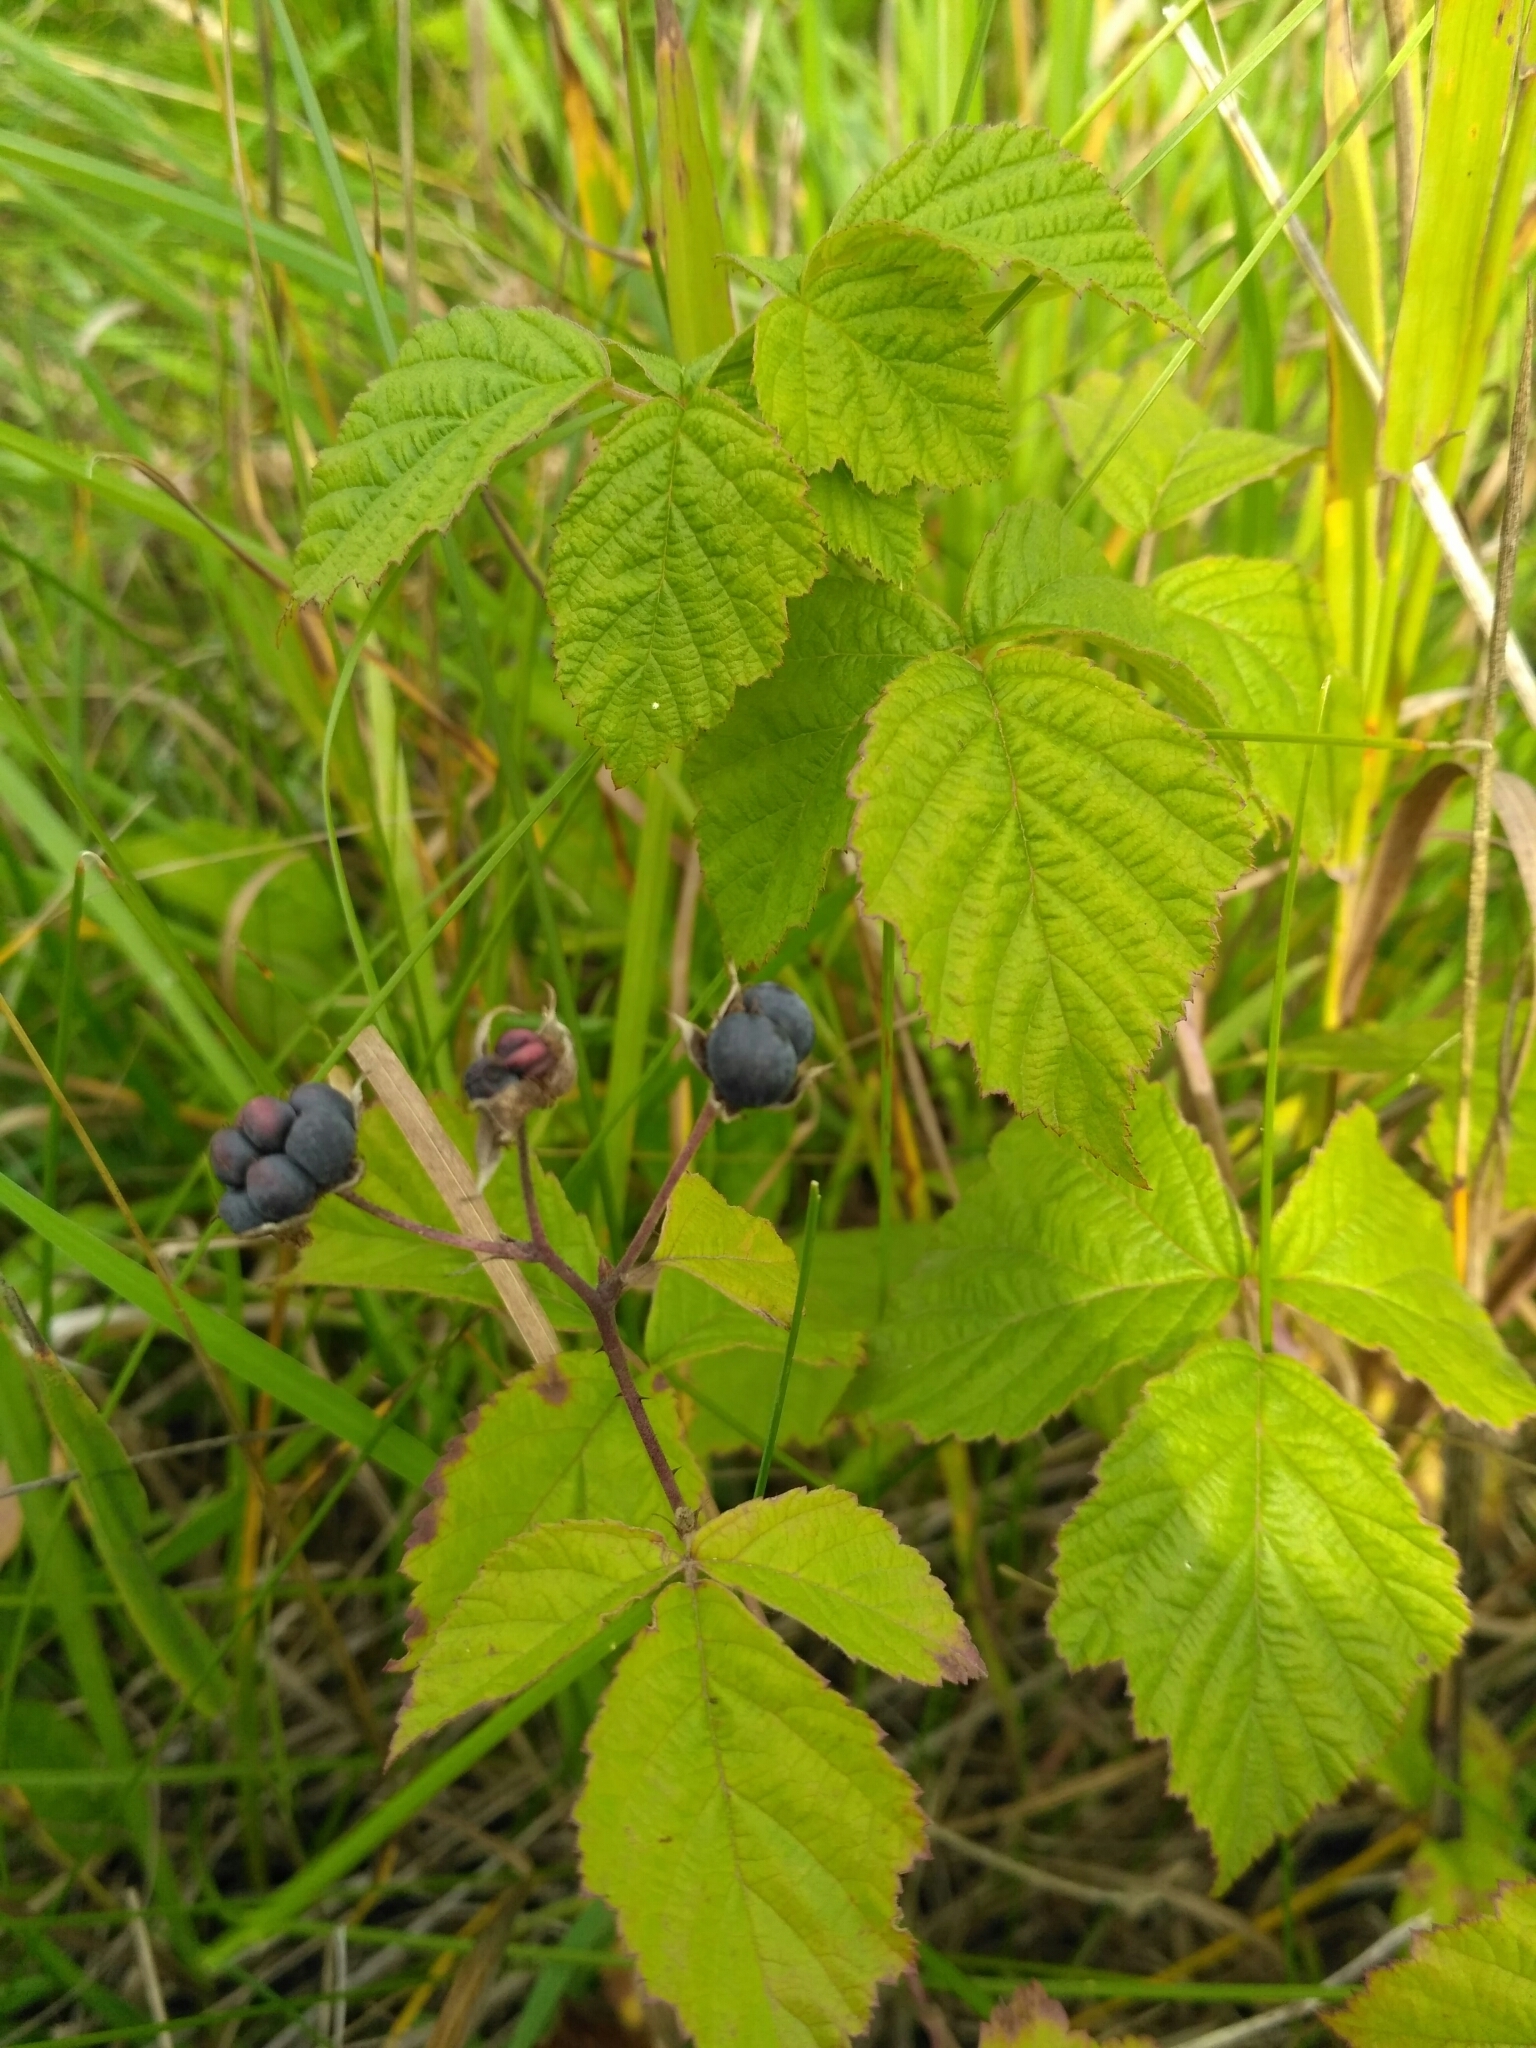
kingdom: Plantae
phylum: Tracheophyta
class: Magnoliopsida
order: Rosales
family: Rosaceae
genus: Rubus
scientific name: Rubus caesius
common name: Dewberry
